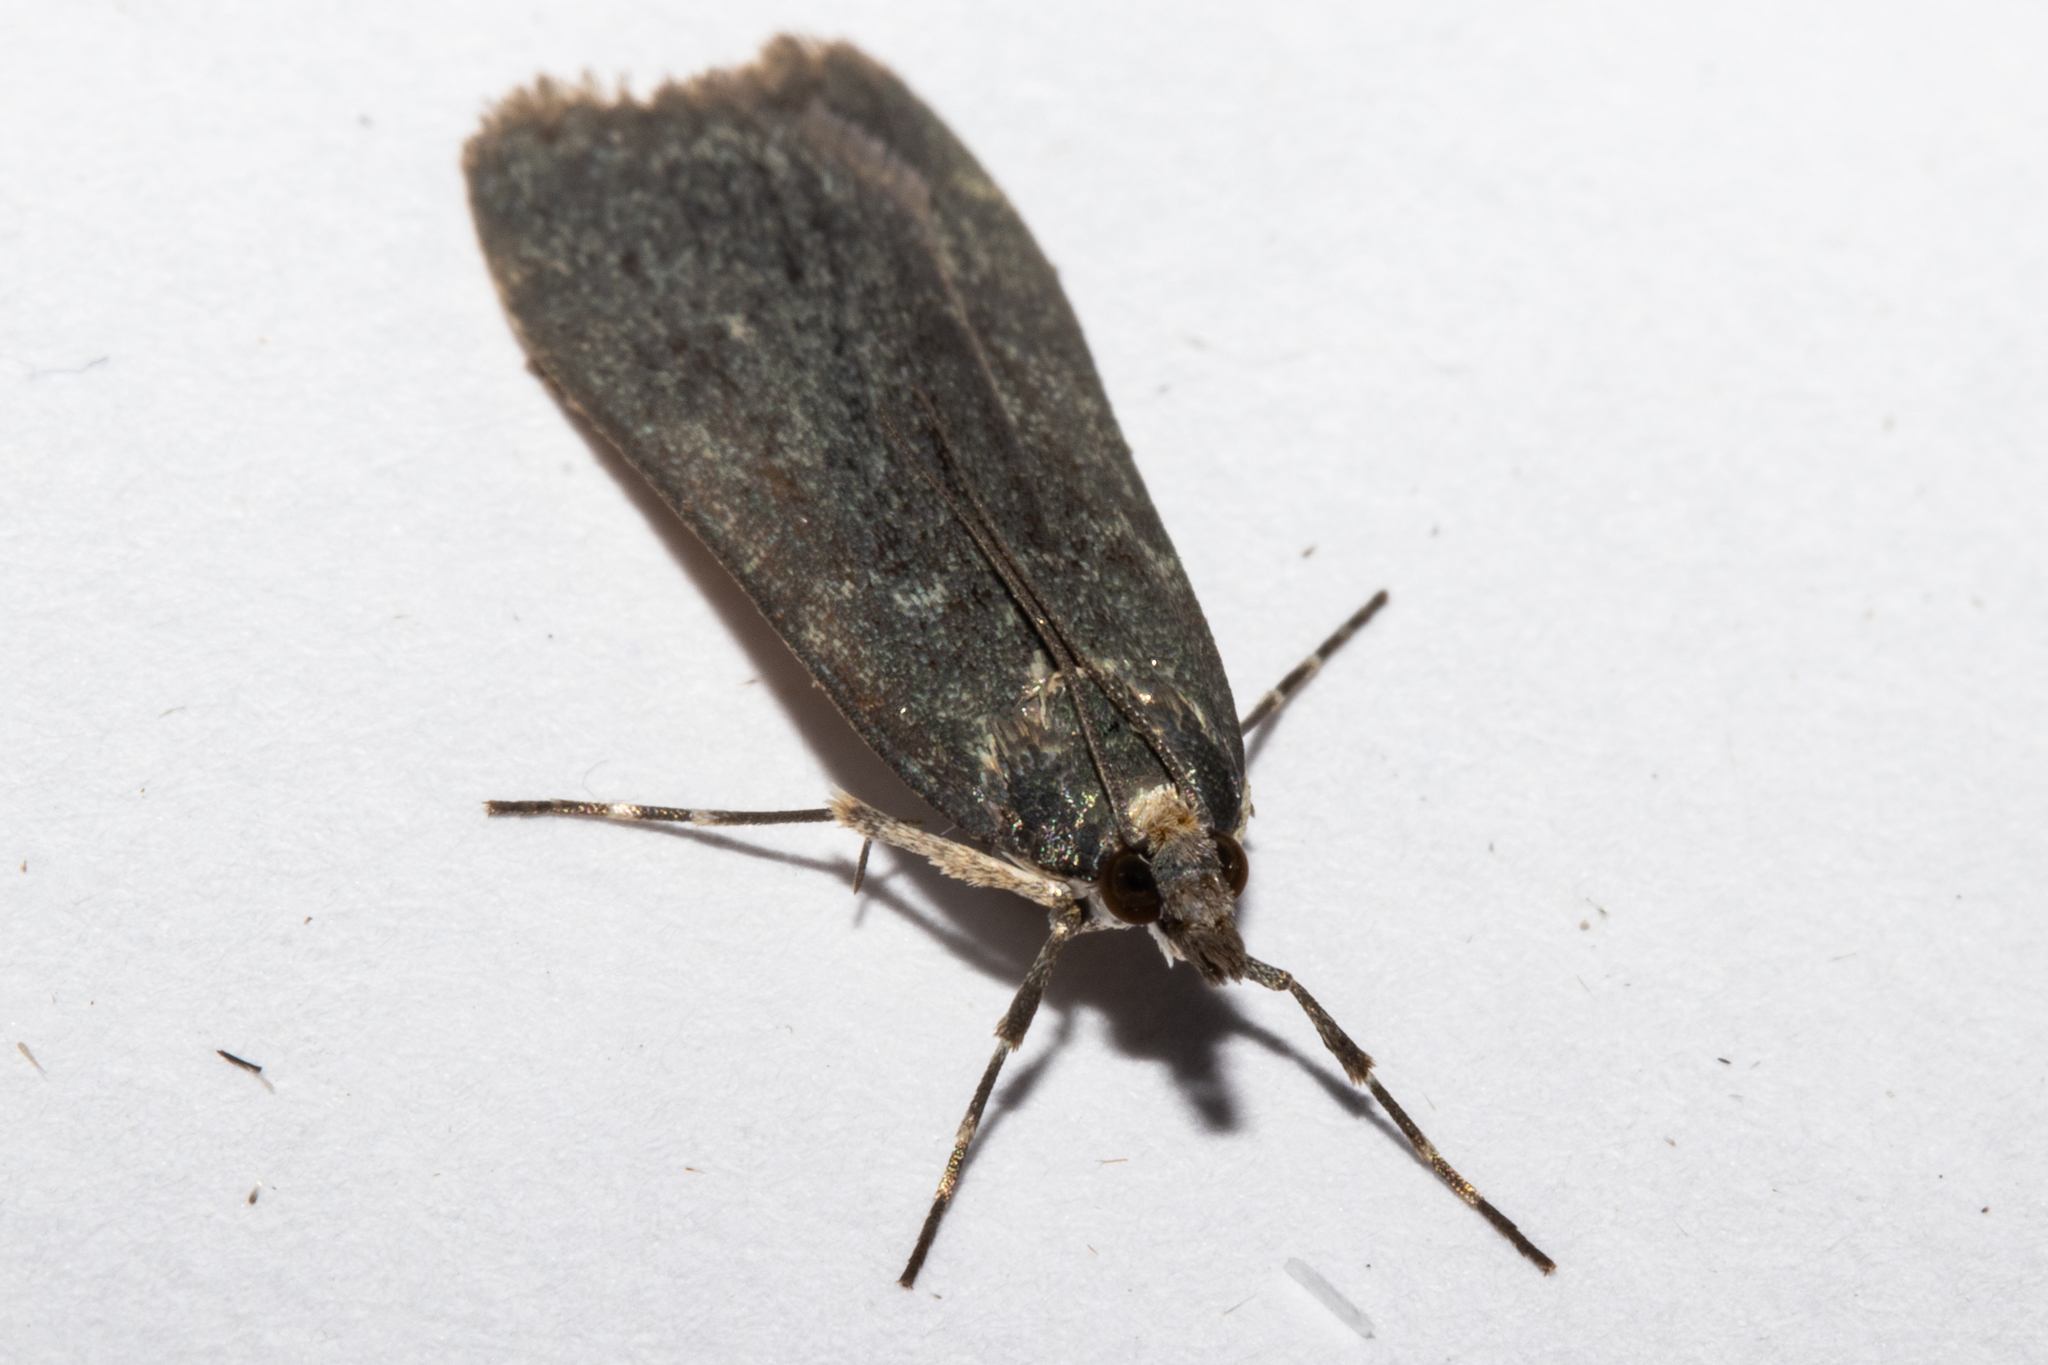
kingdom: Animalia
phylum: Arthropoda
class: Insecta
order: Lepidoptera
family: Crambidae
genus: Eudonia
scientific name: Eudonia cataxesta
